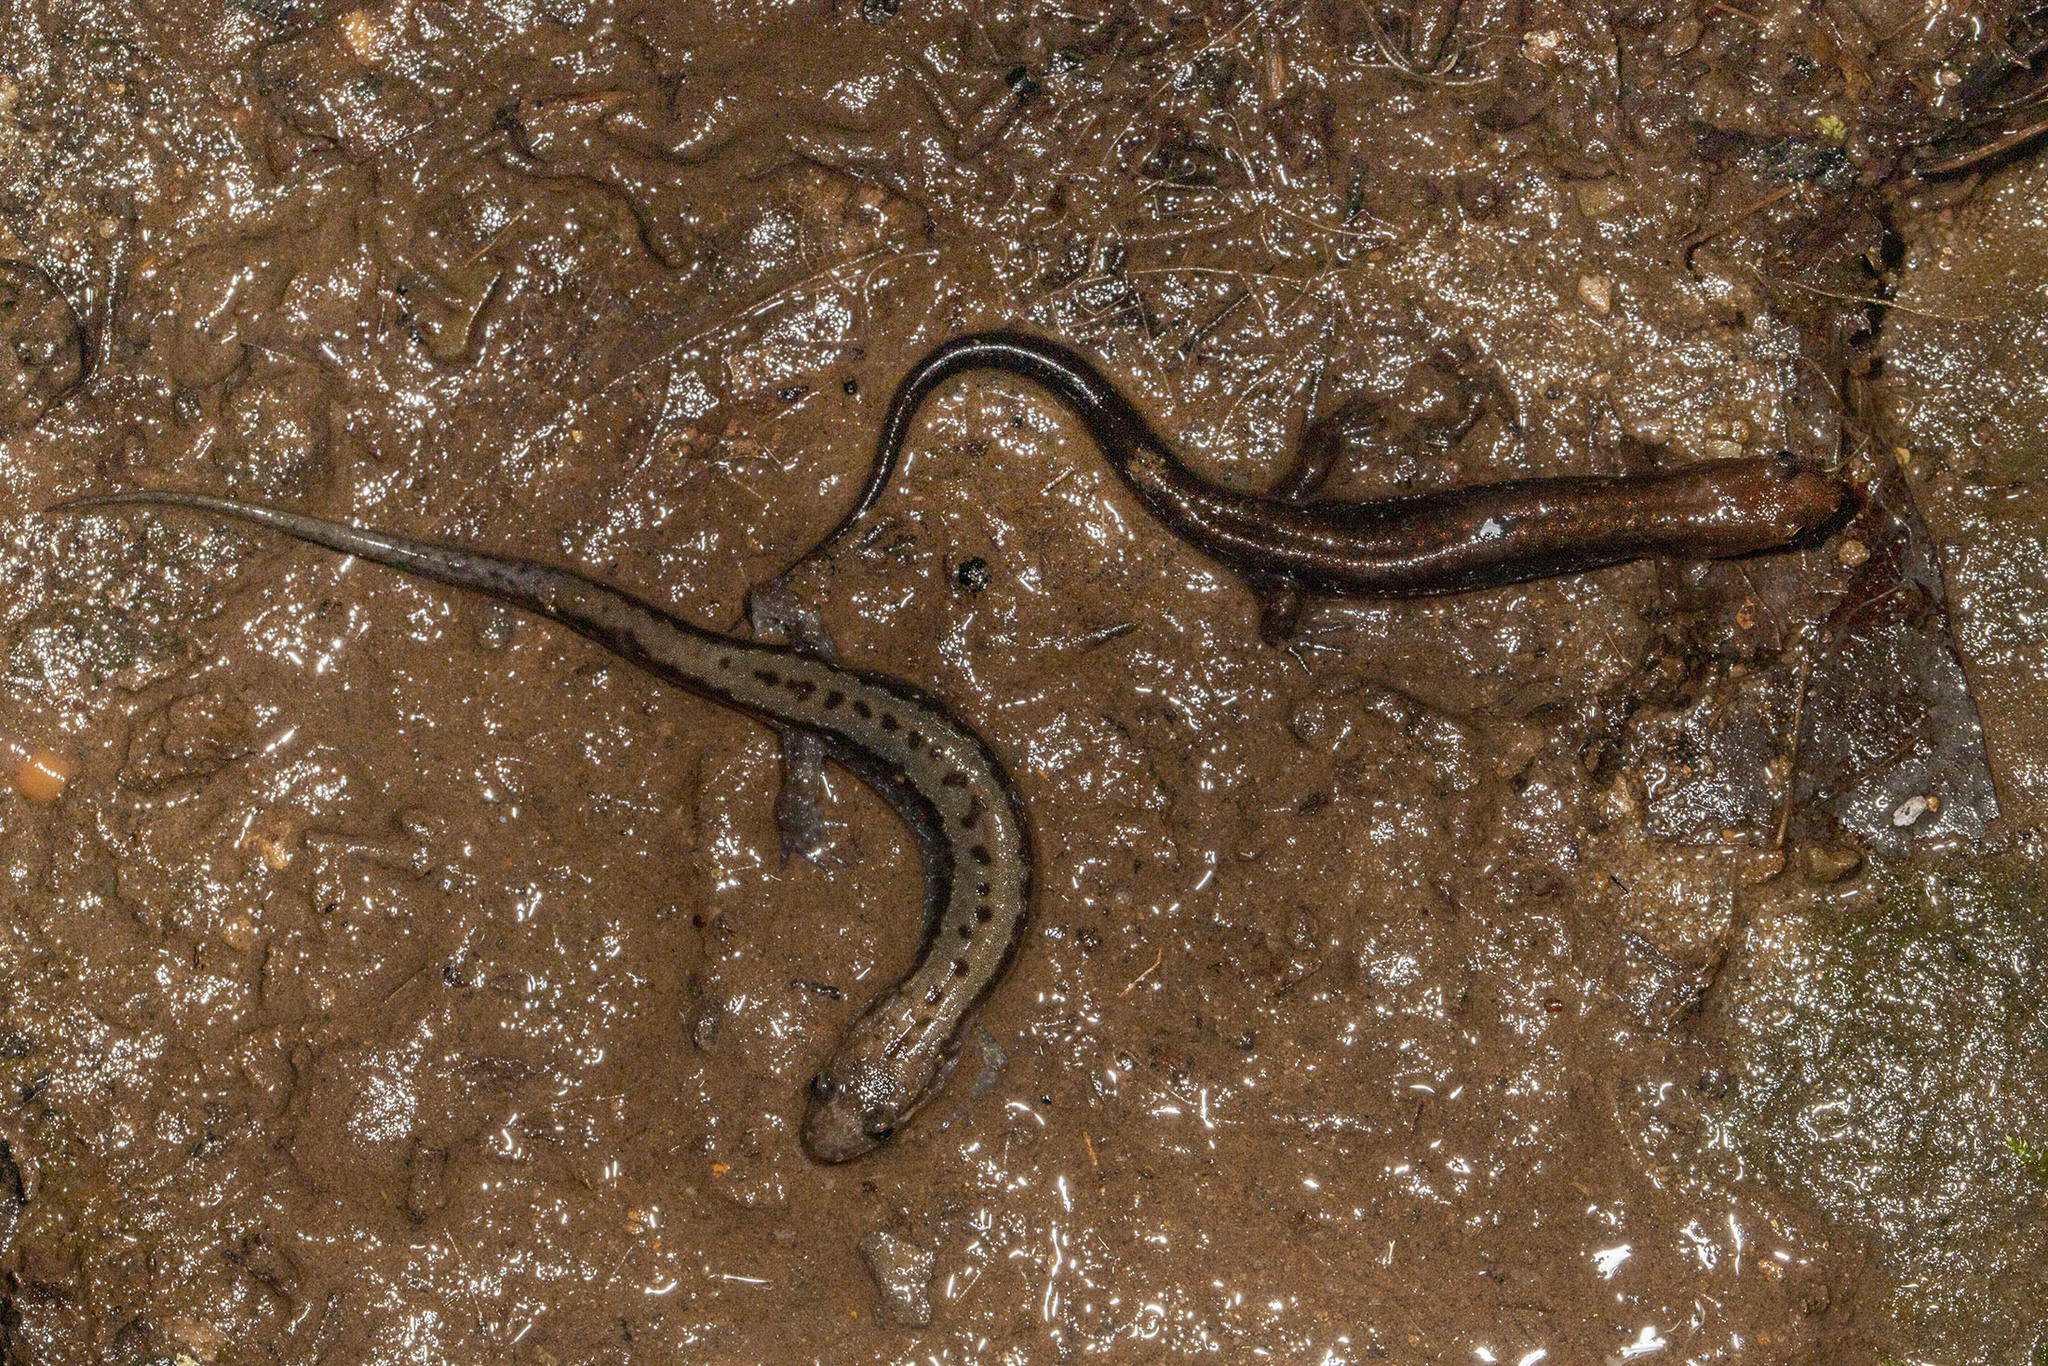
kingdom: Animalia
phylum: Chordata
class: Amphibia
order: Caudata
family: Plethodontidae
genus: Desmognathus
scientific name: Desmognathus ochrophaeus
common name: Allegheny mountain dusky salamander
